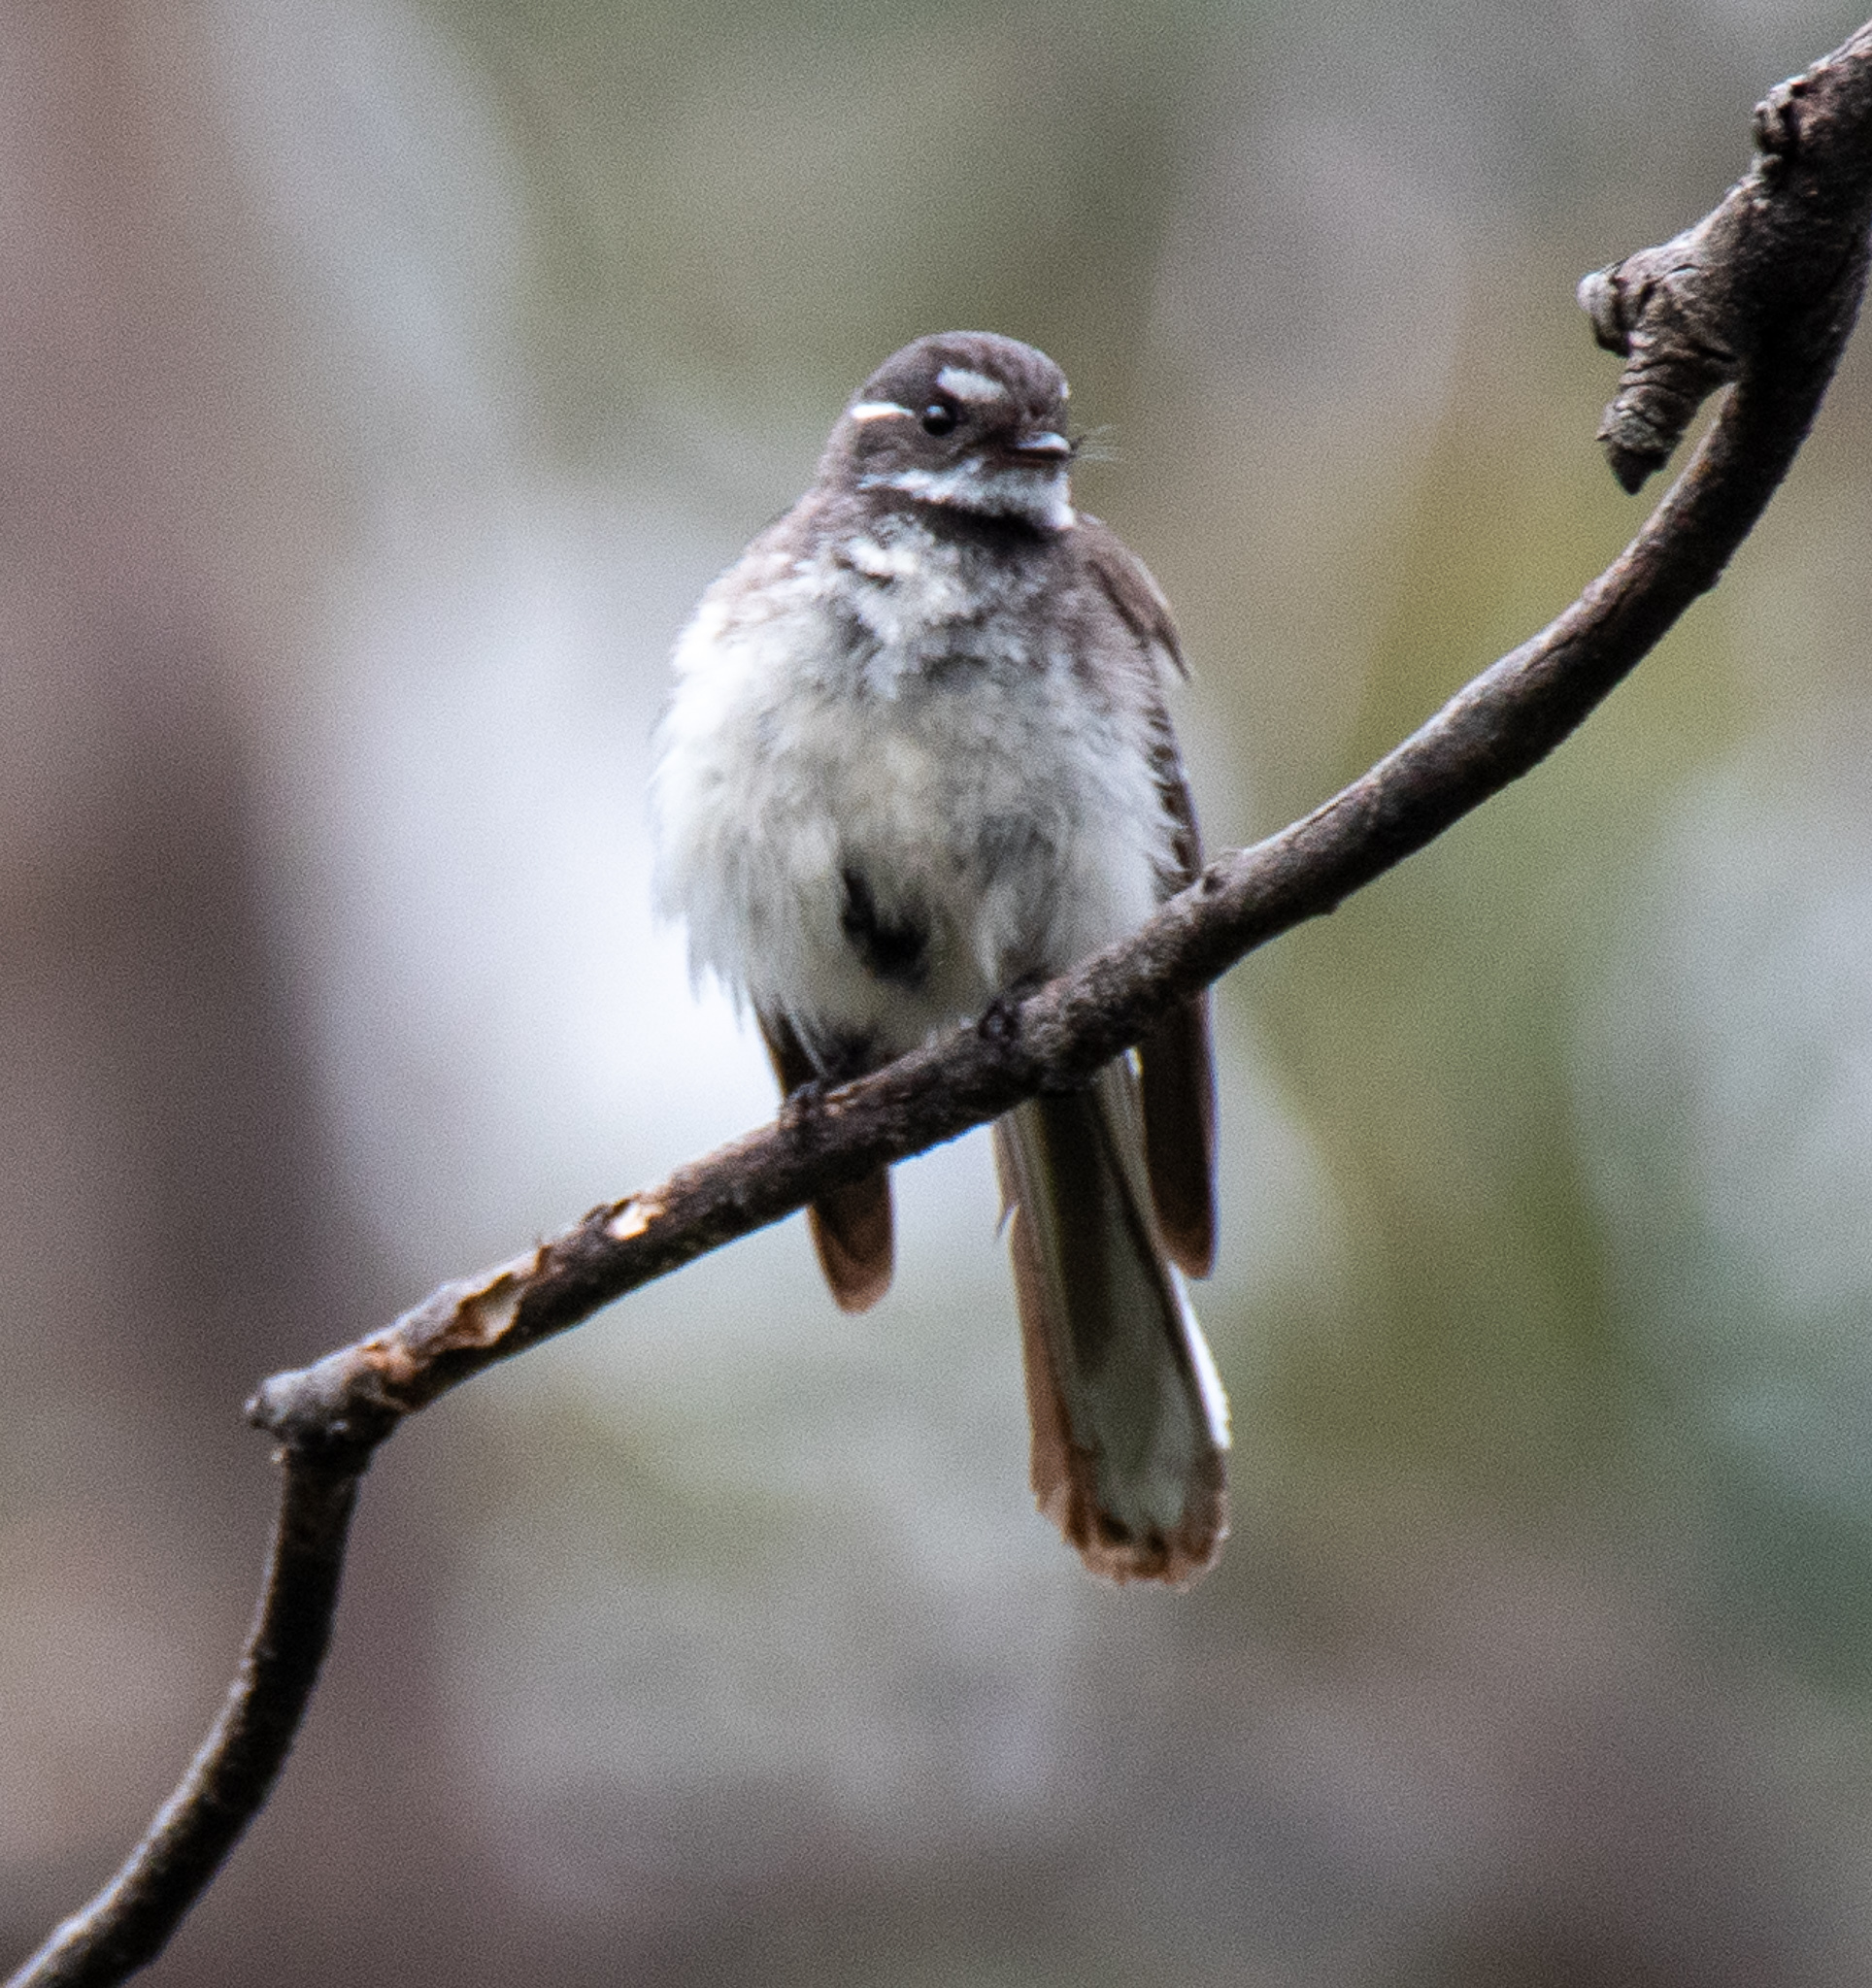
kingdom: Animalia
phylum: Chordata
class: Aves
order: Passeriformes
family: Rhipiduridae
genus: Rhipidura
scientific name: Rhipidura albiscapa
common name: Grey fantail
